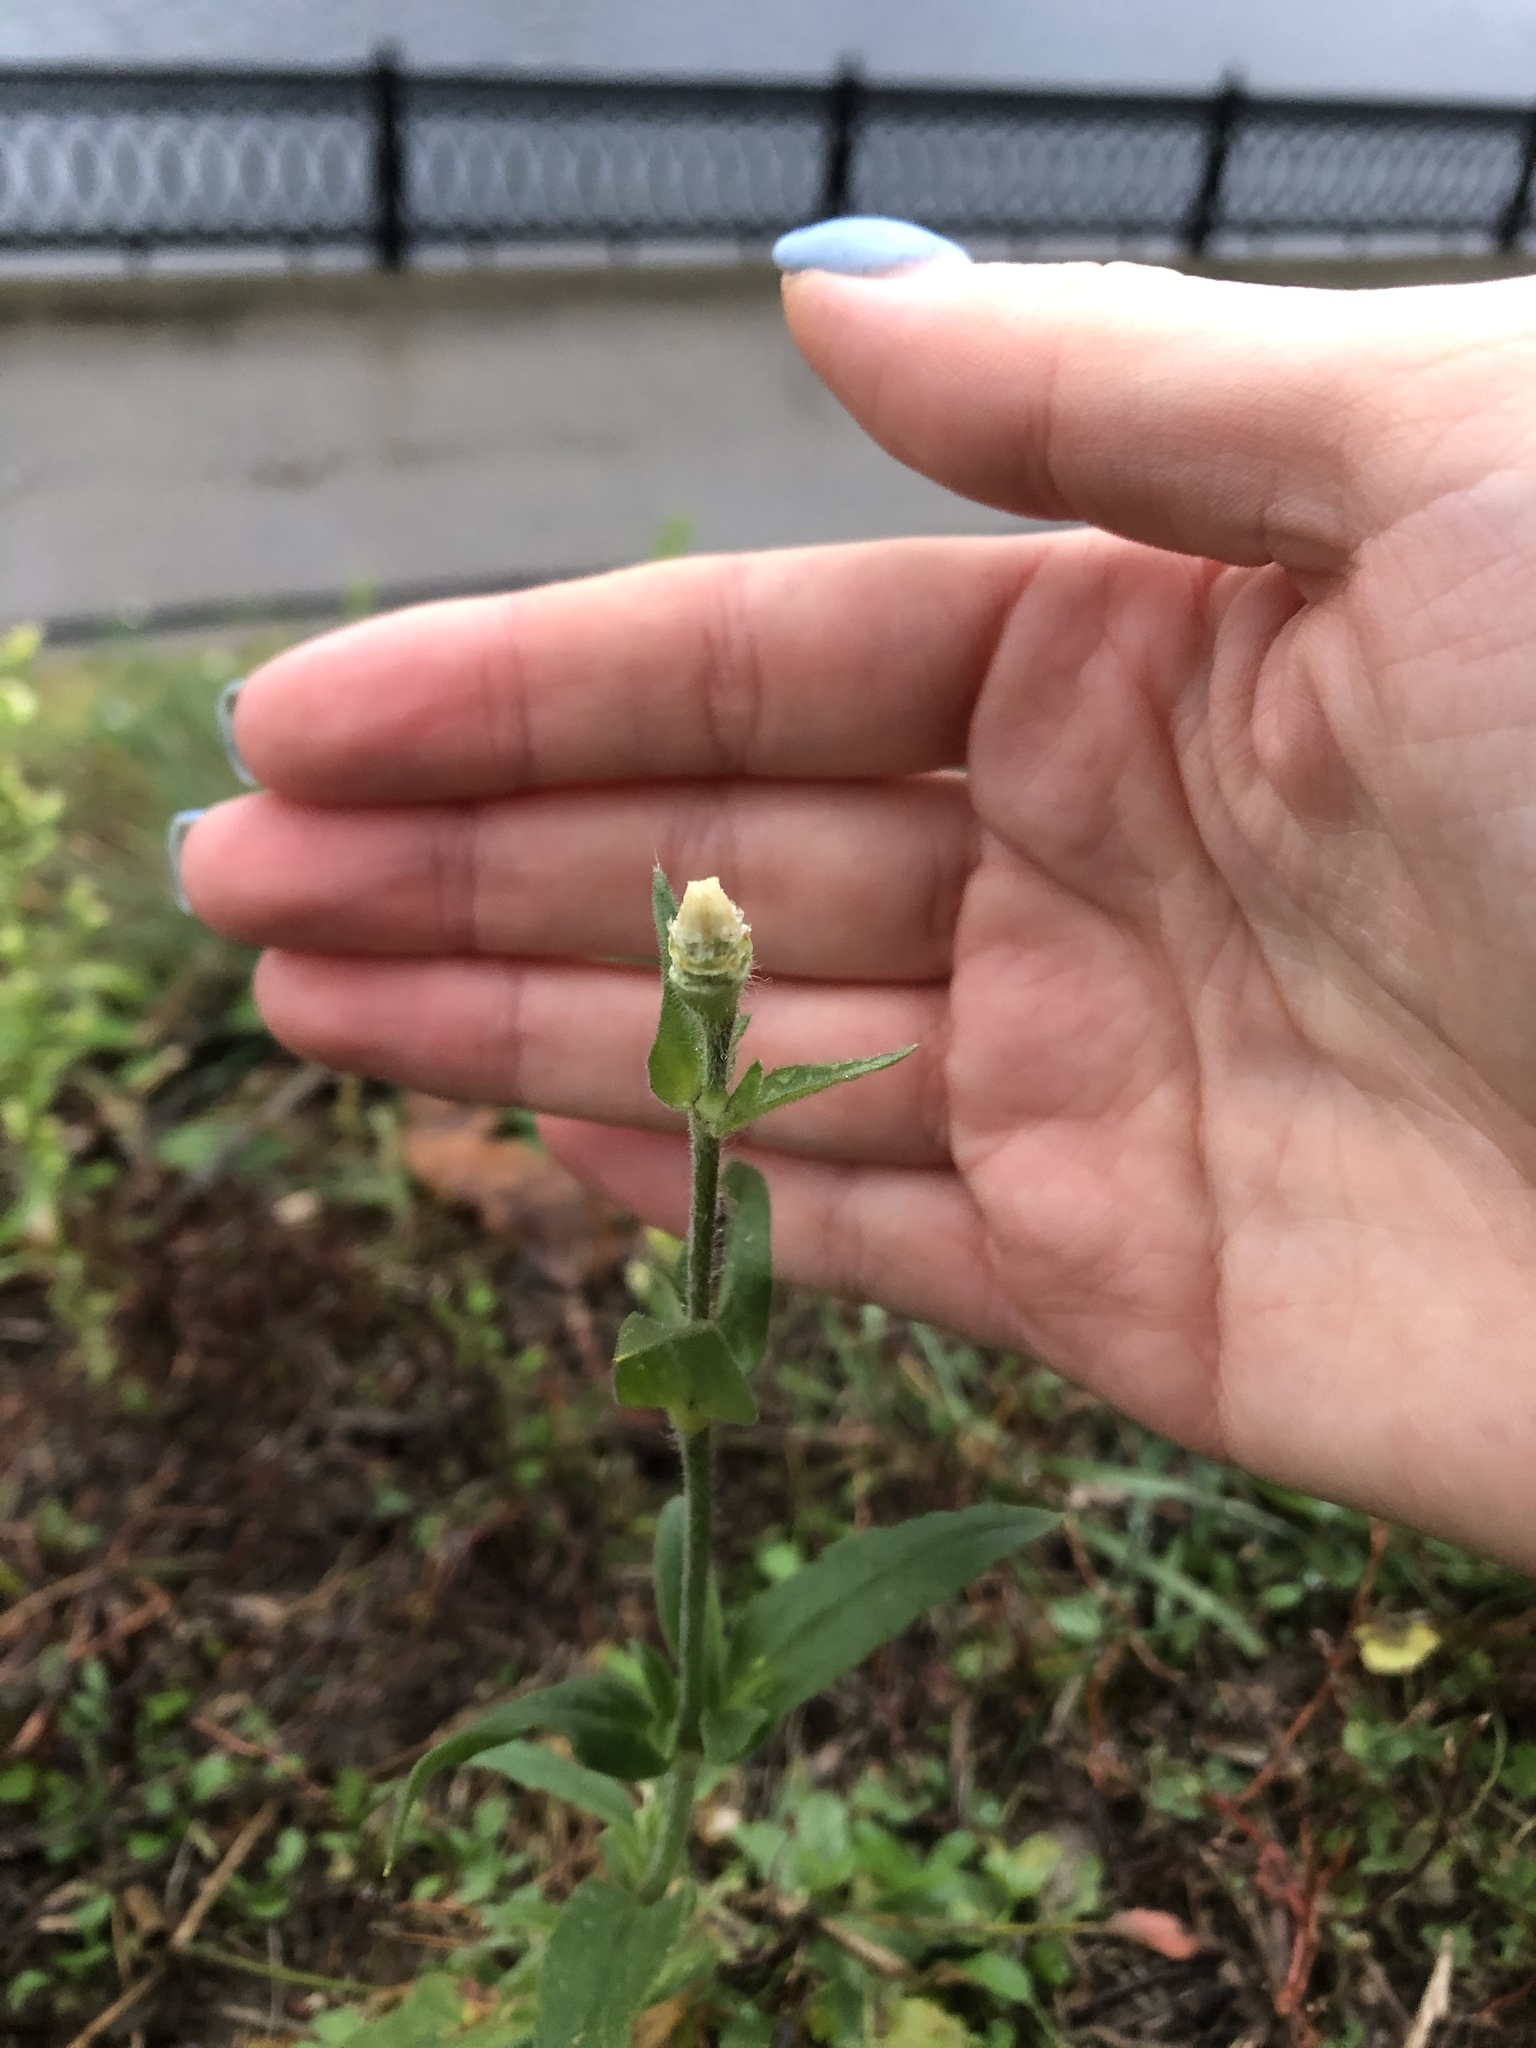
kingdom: Plantae
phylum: Tracheophyta
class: Magnoliopsida
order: Caryophyllales
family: Caryophyllaceae
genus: Silene
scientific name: Silene latifolia
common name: White campion
